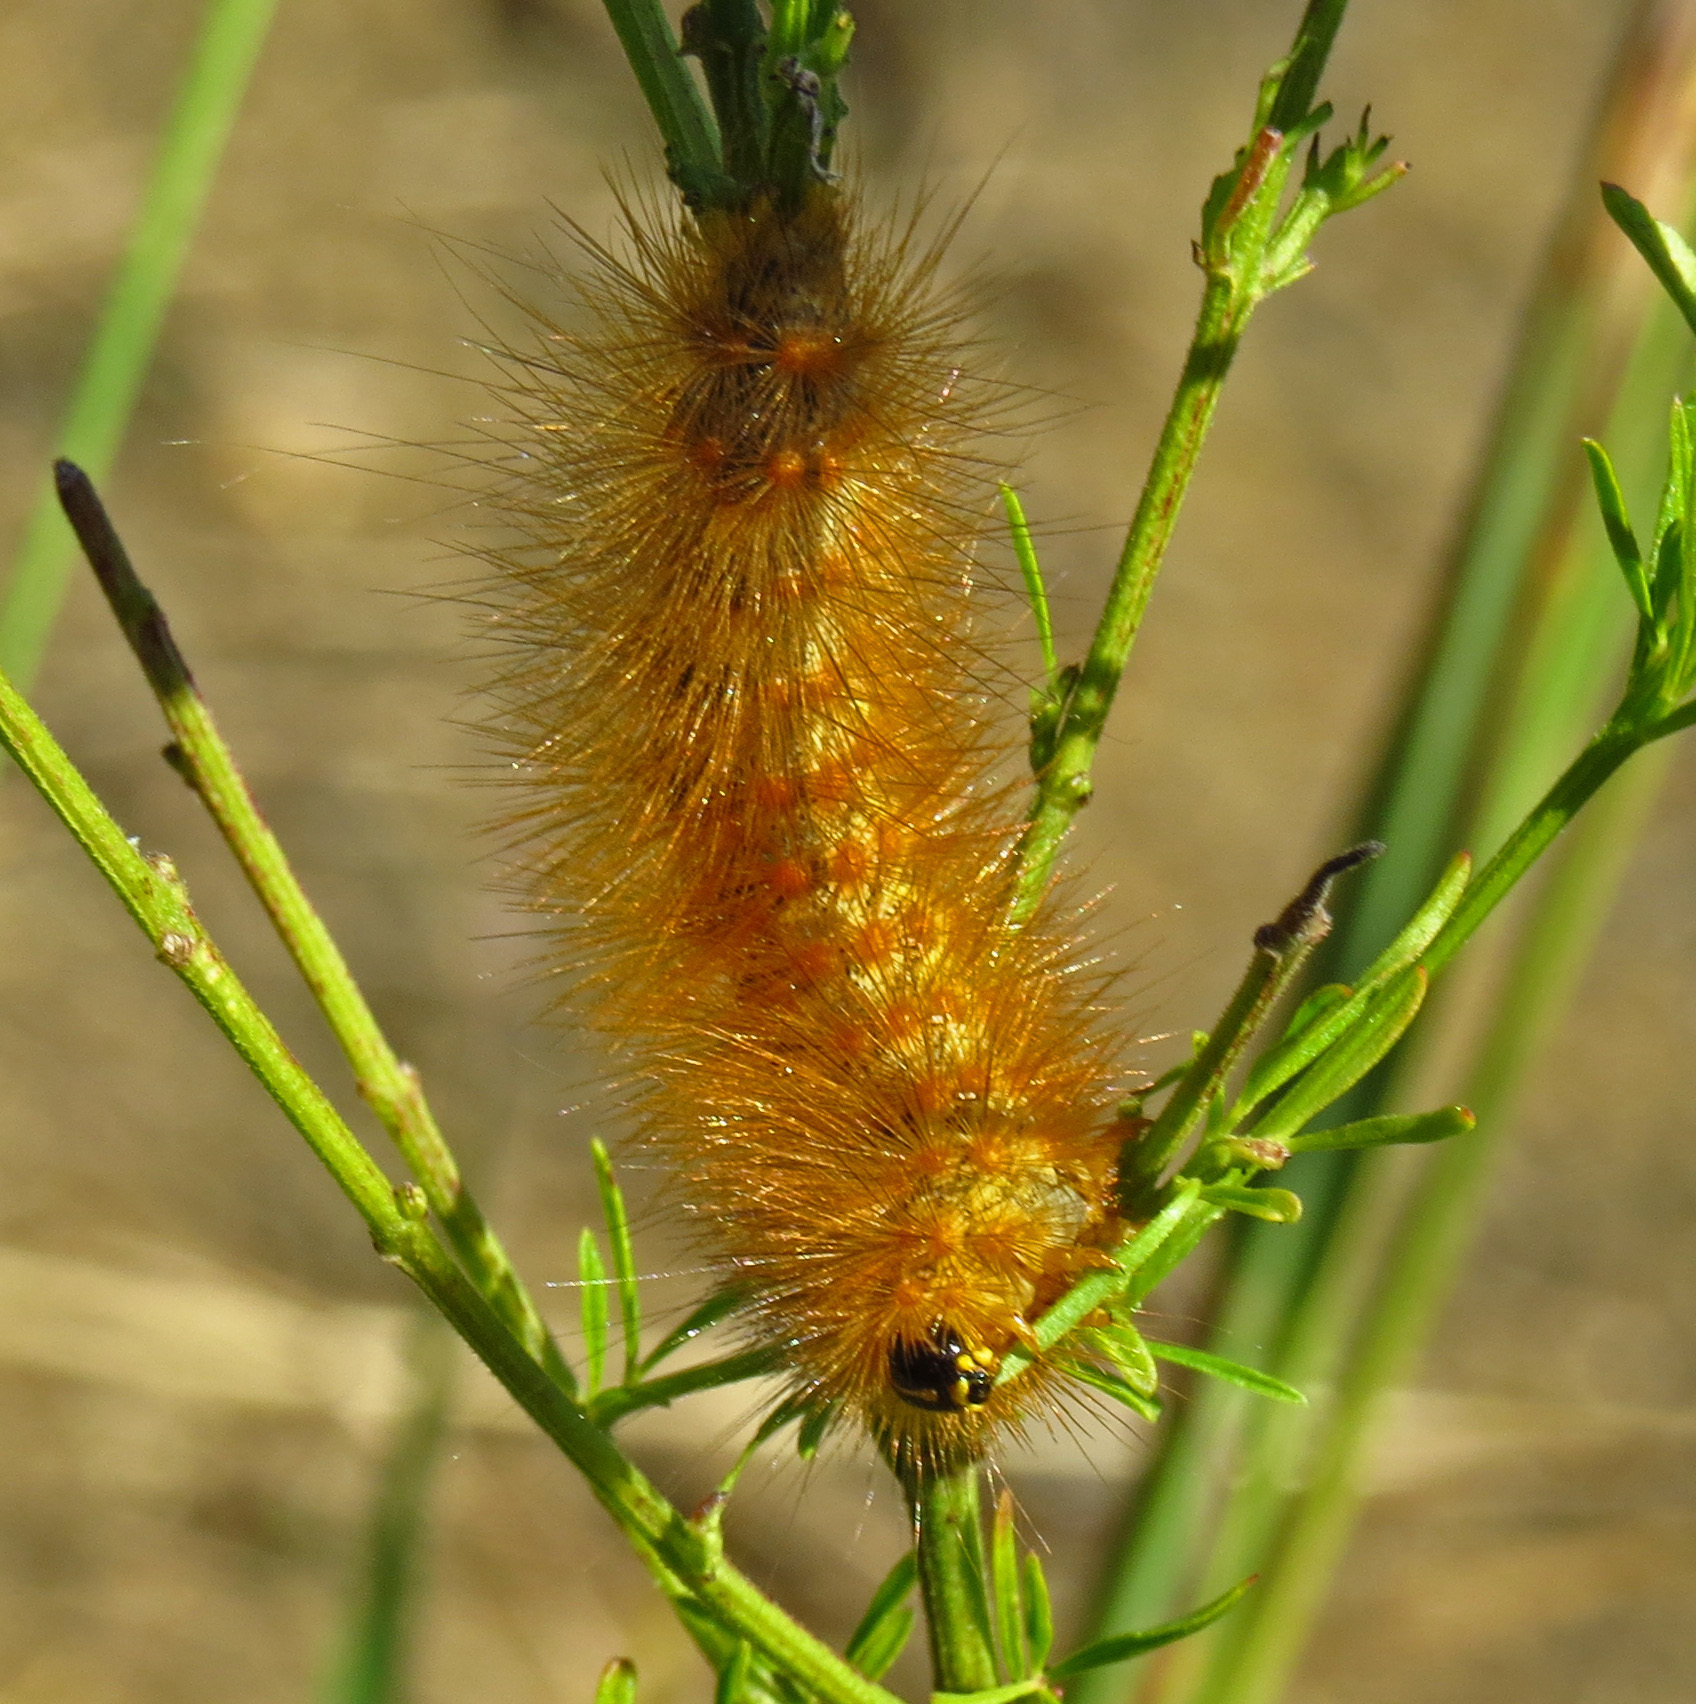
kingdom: Animalia
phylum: Arthropoda
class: Insecta
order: Lepidoptera
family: Erebidae
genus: Estigmene
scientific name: Estigmene acrea
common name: Salt marsh moth
